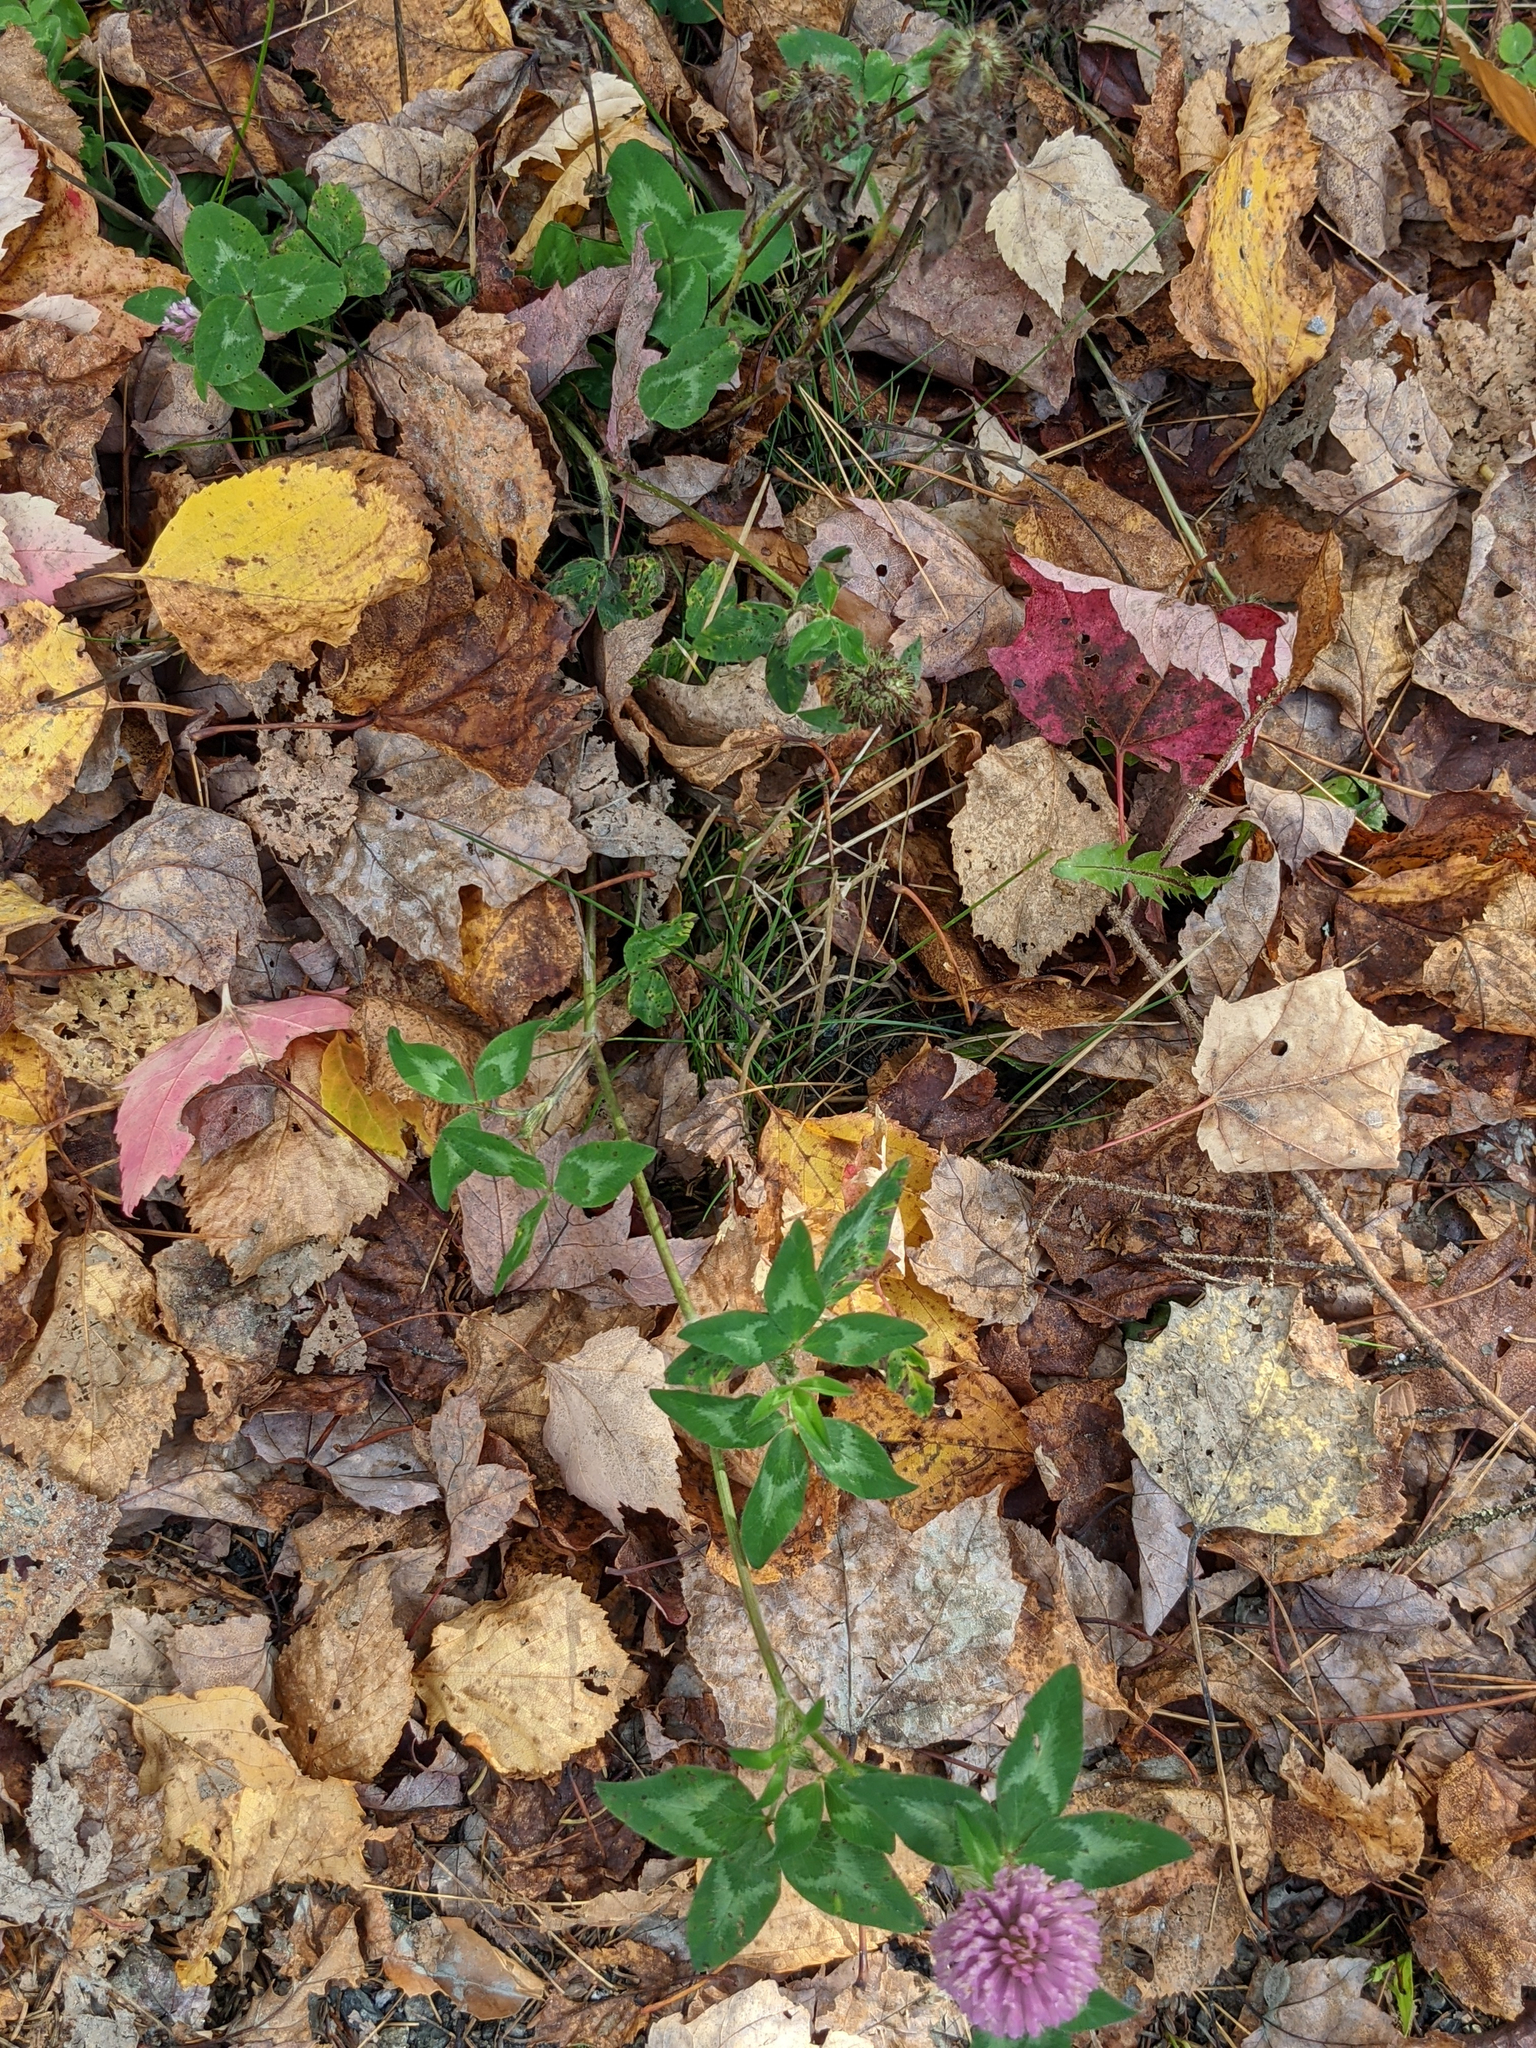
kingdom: Plantae
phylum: Tracheophyta
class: Magnoliopsida
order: Fabales
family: Fabaceae
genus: Trifolium
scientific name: Trifolium pratense
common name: Red clover
